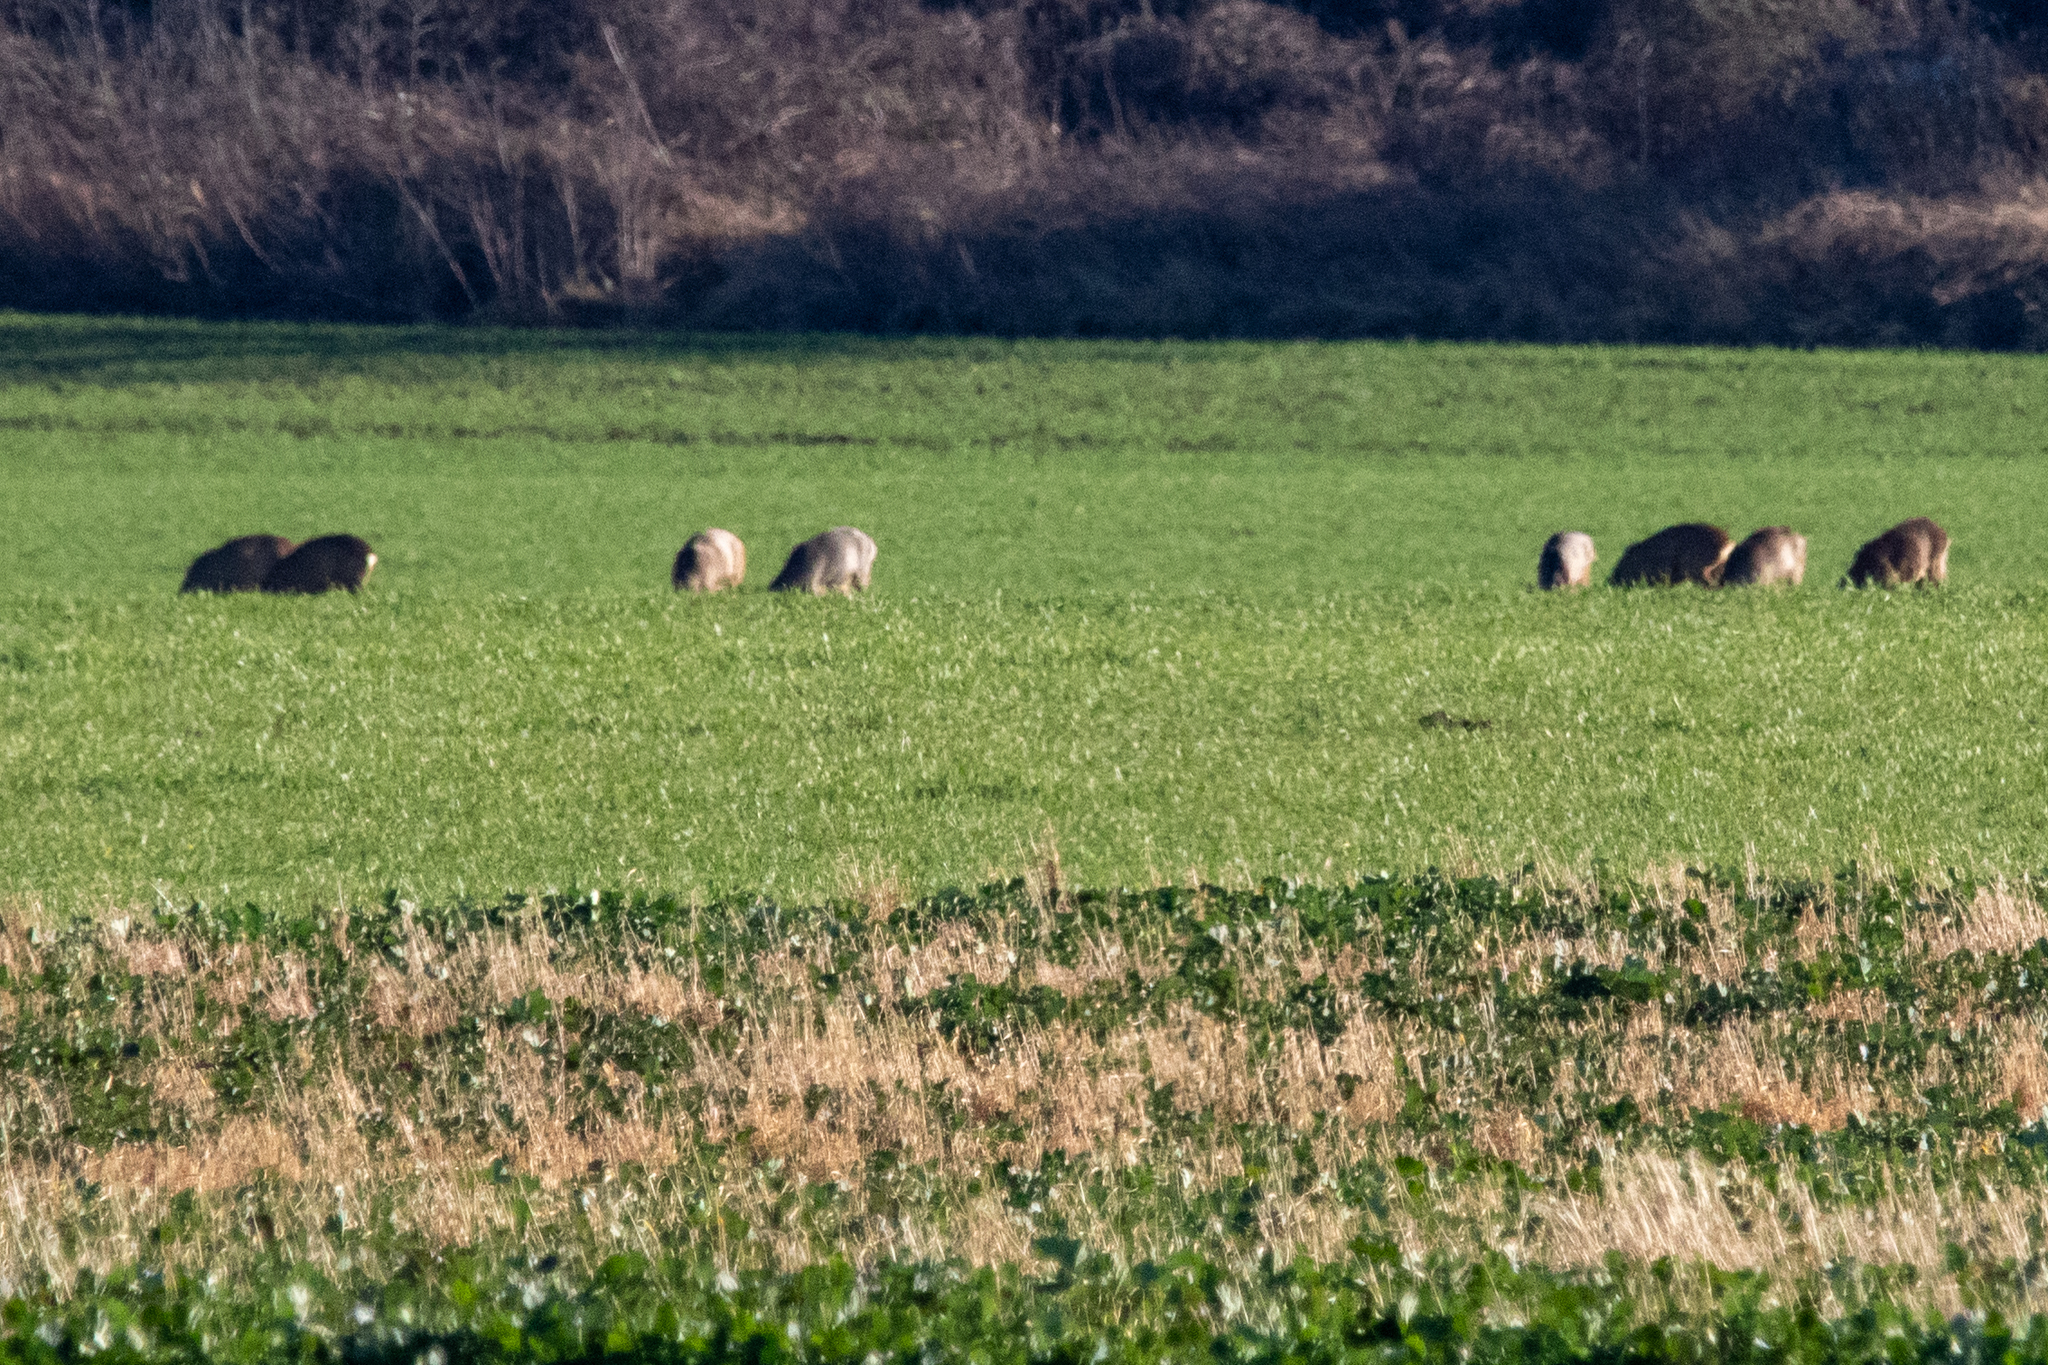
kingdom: Animalia
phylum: Chordata
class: Mammalia
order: Artiodactyla
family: Cervidae
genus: Capreolus
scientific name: Capreolus capreolus
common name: Western roe deer
